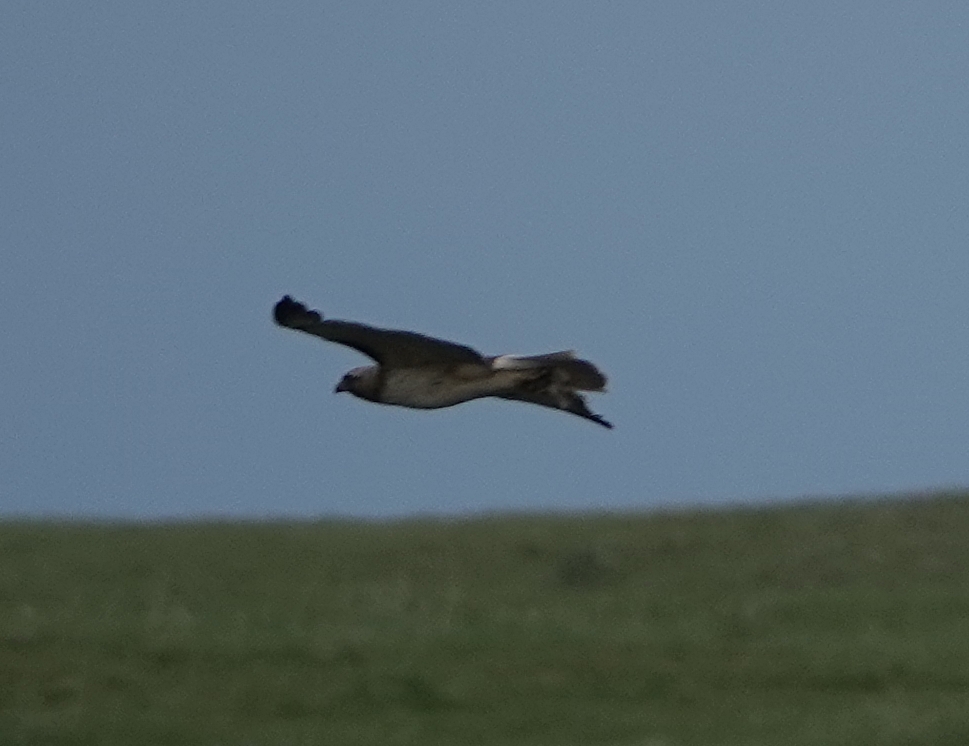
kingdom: Animalia
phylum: Chordata
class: Aves
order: Accipitriformes
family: Accipitridae
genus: Buteo
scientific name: Buteo jamaicensis
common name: Red-tailed hawk
